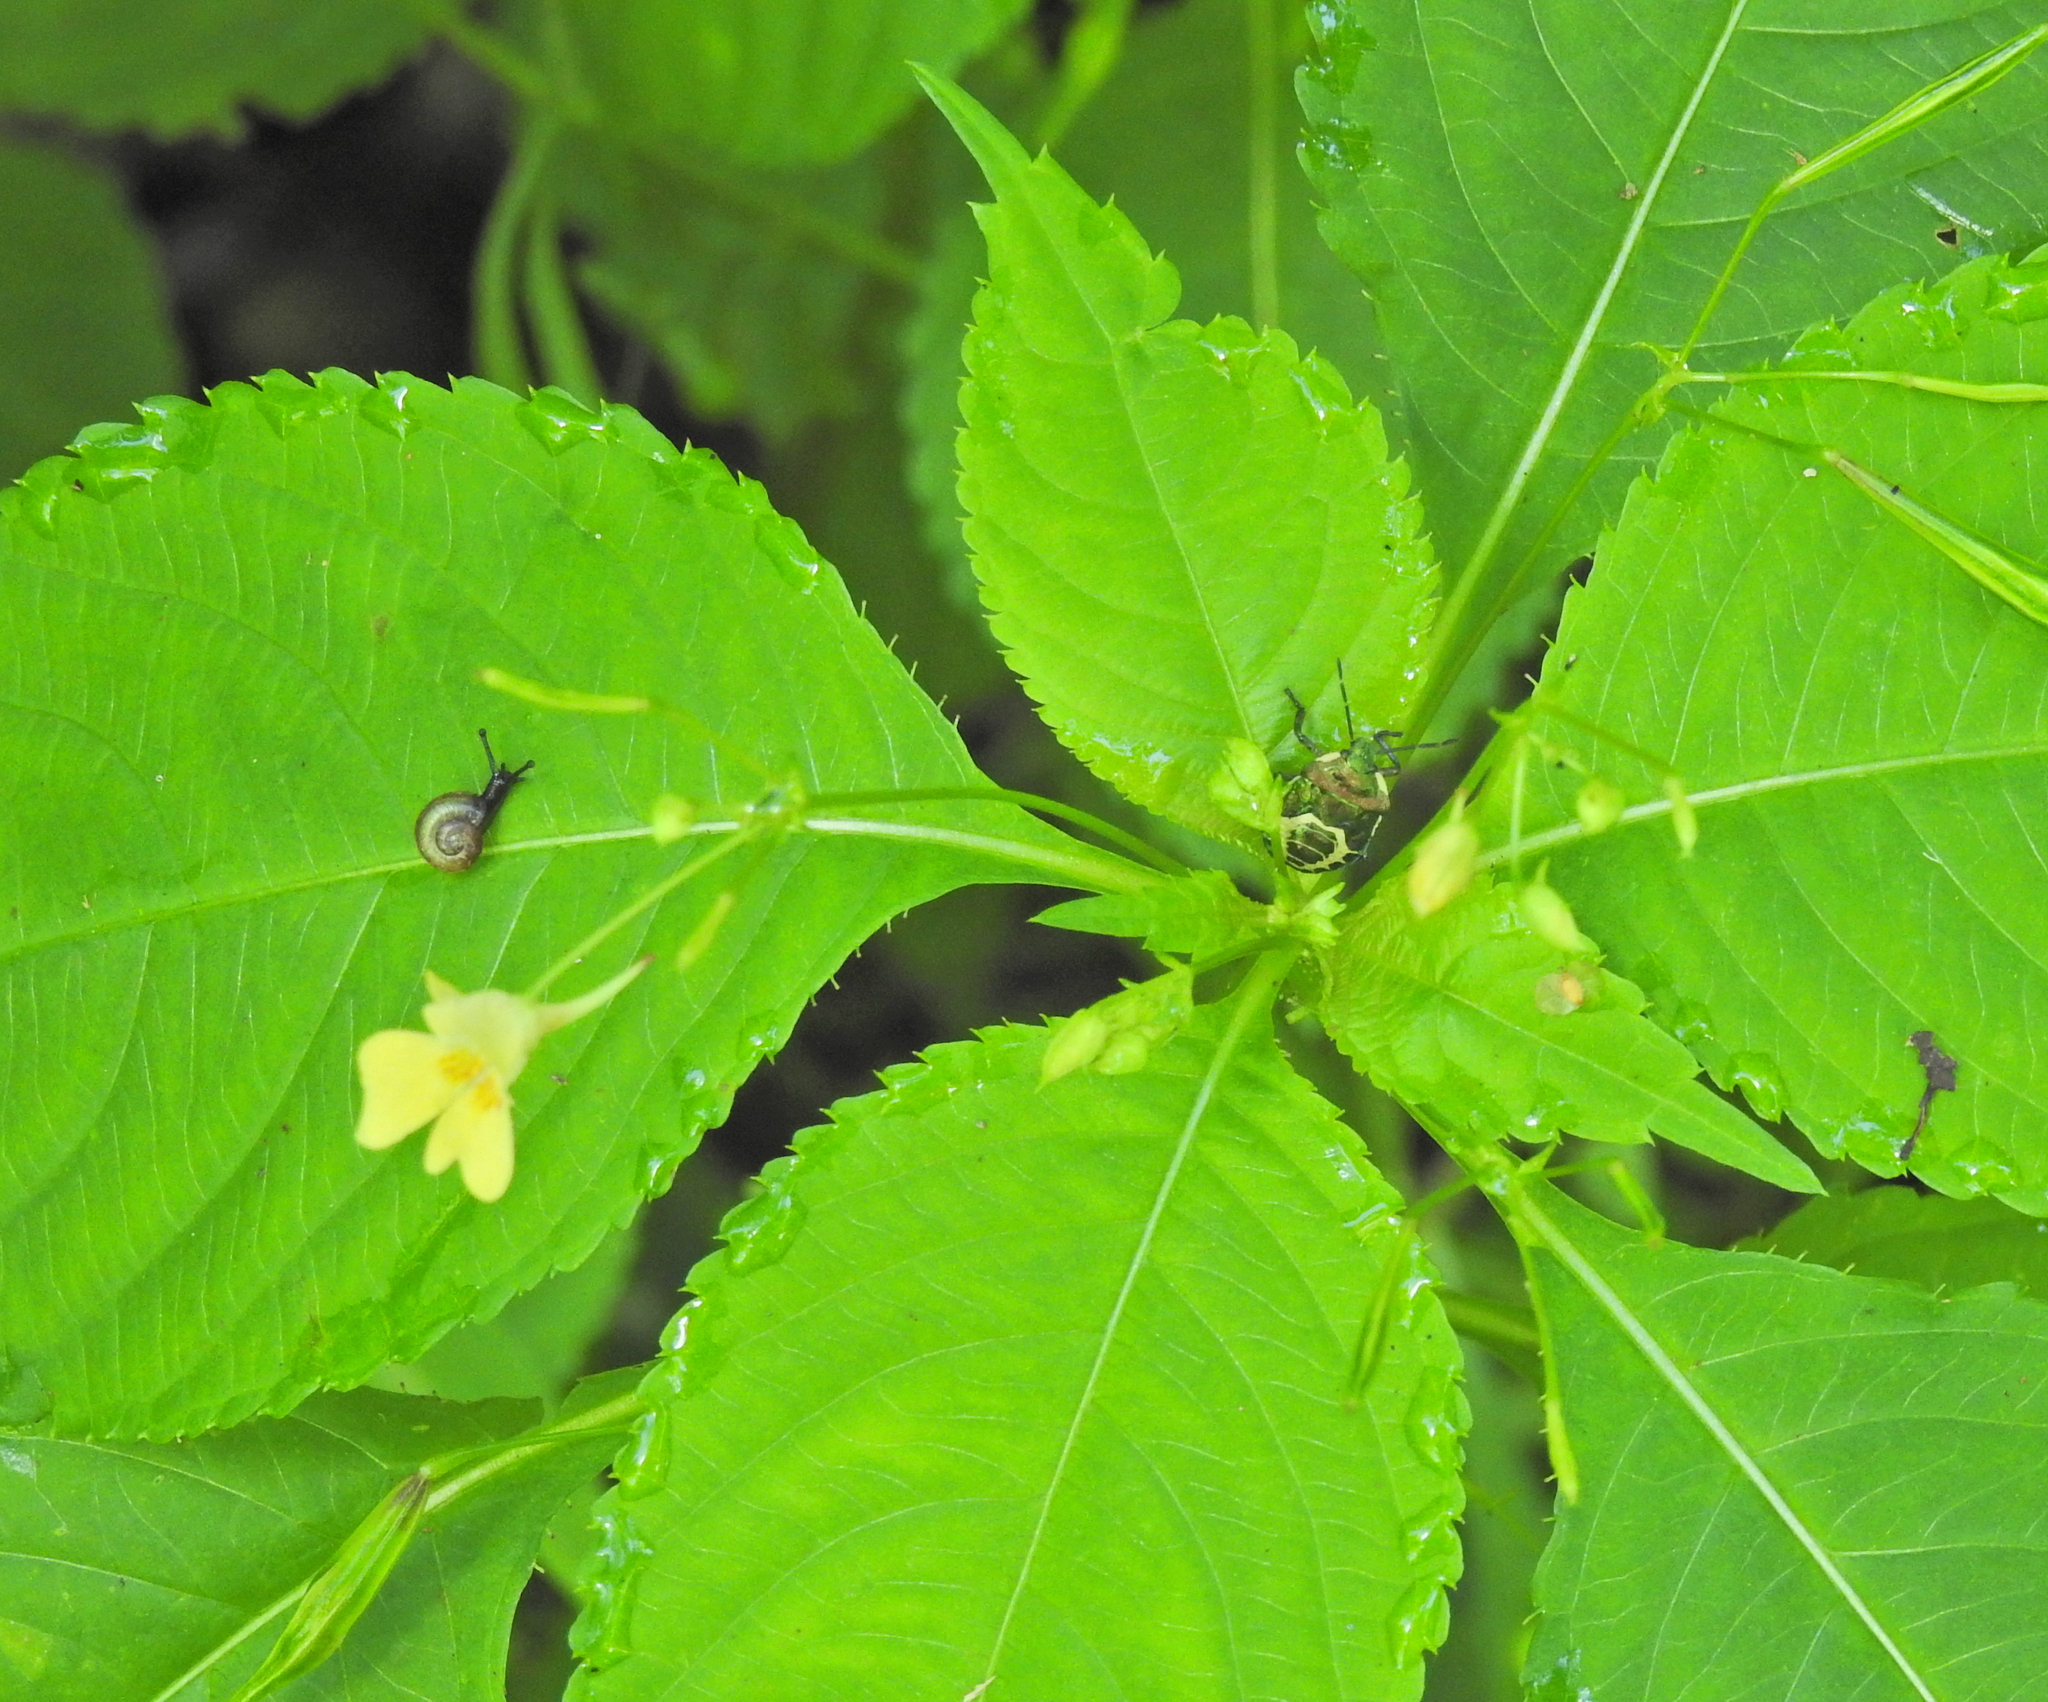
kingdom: Animalia
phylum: Arthropoda
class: Insecta
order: Hemiptera
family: Pentatomidae
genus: Troilus
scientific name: Troilus luridus
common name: Bronze shieldbug
